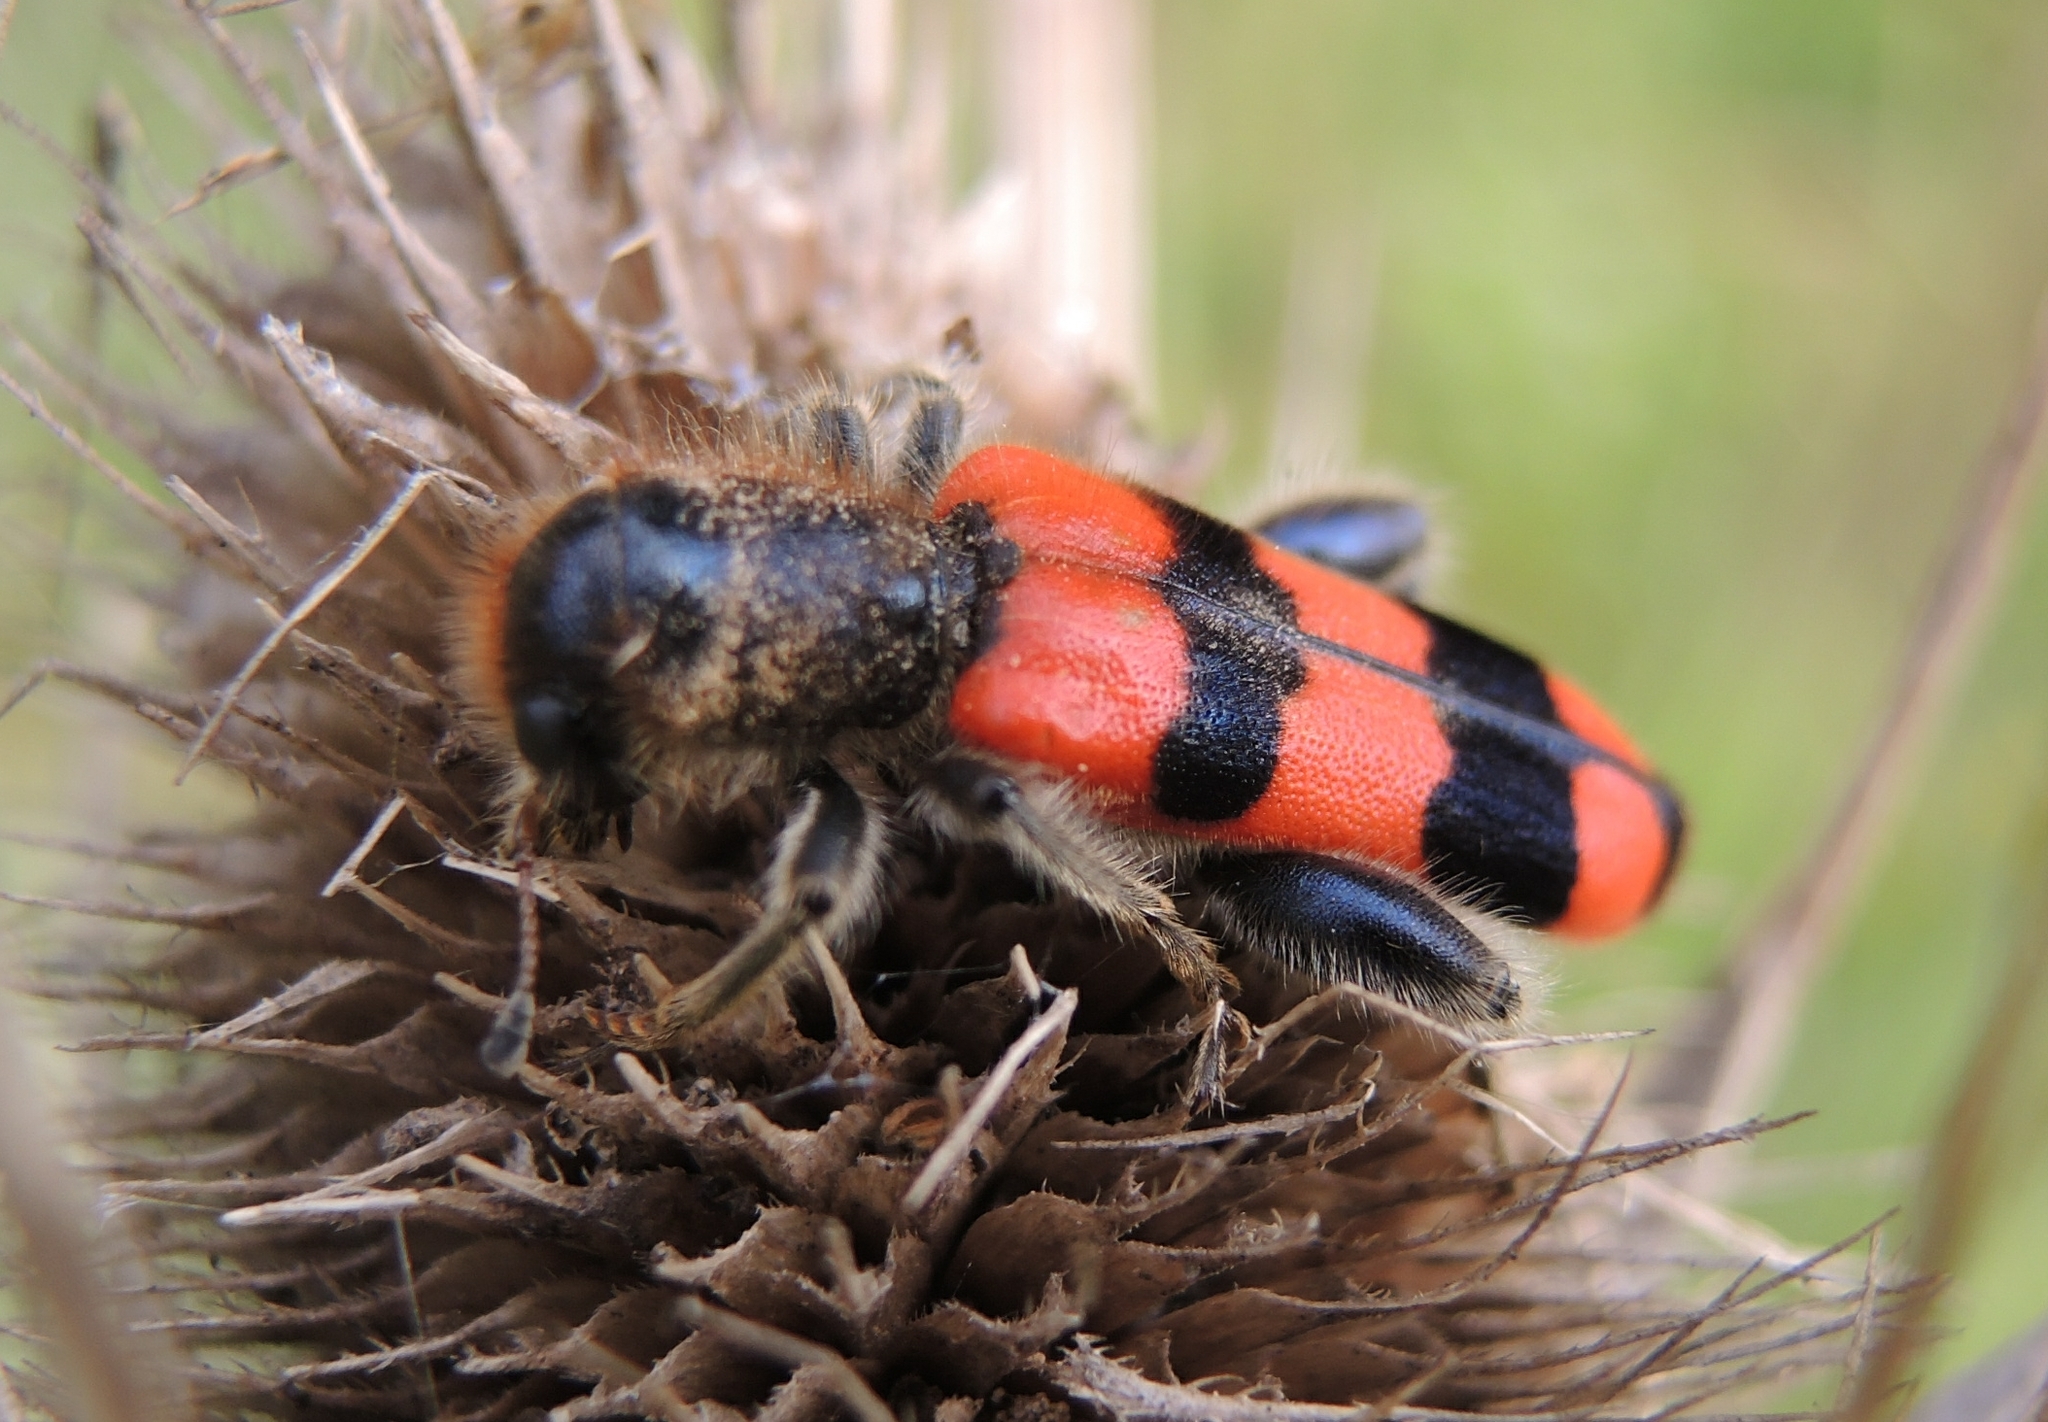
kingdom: Animalia
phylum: Arthropoda
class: Insecta
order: Coleoptera
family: Cleridae
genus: Trichodes
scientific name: Trichodes crabroniformis
